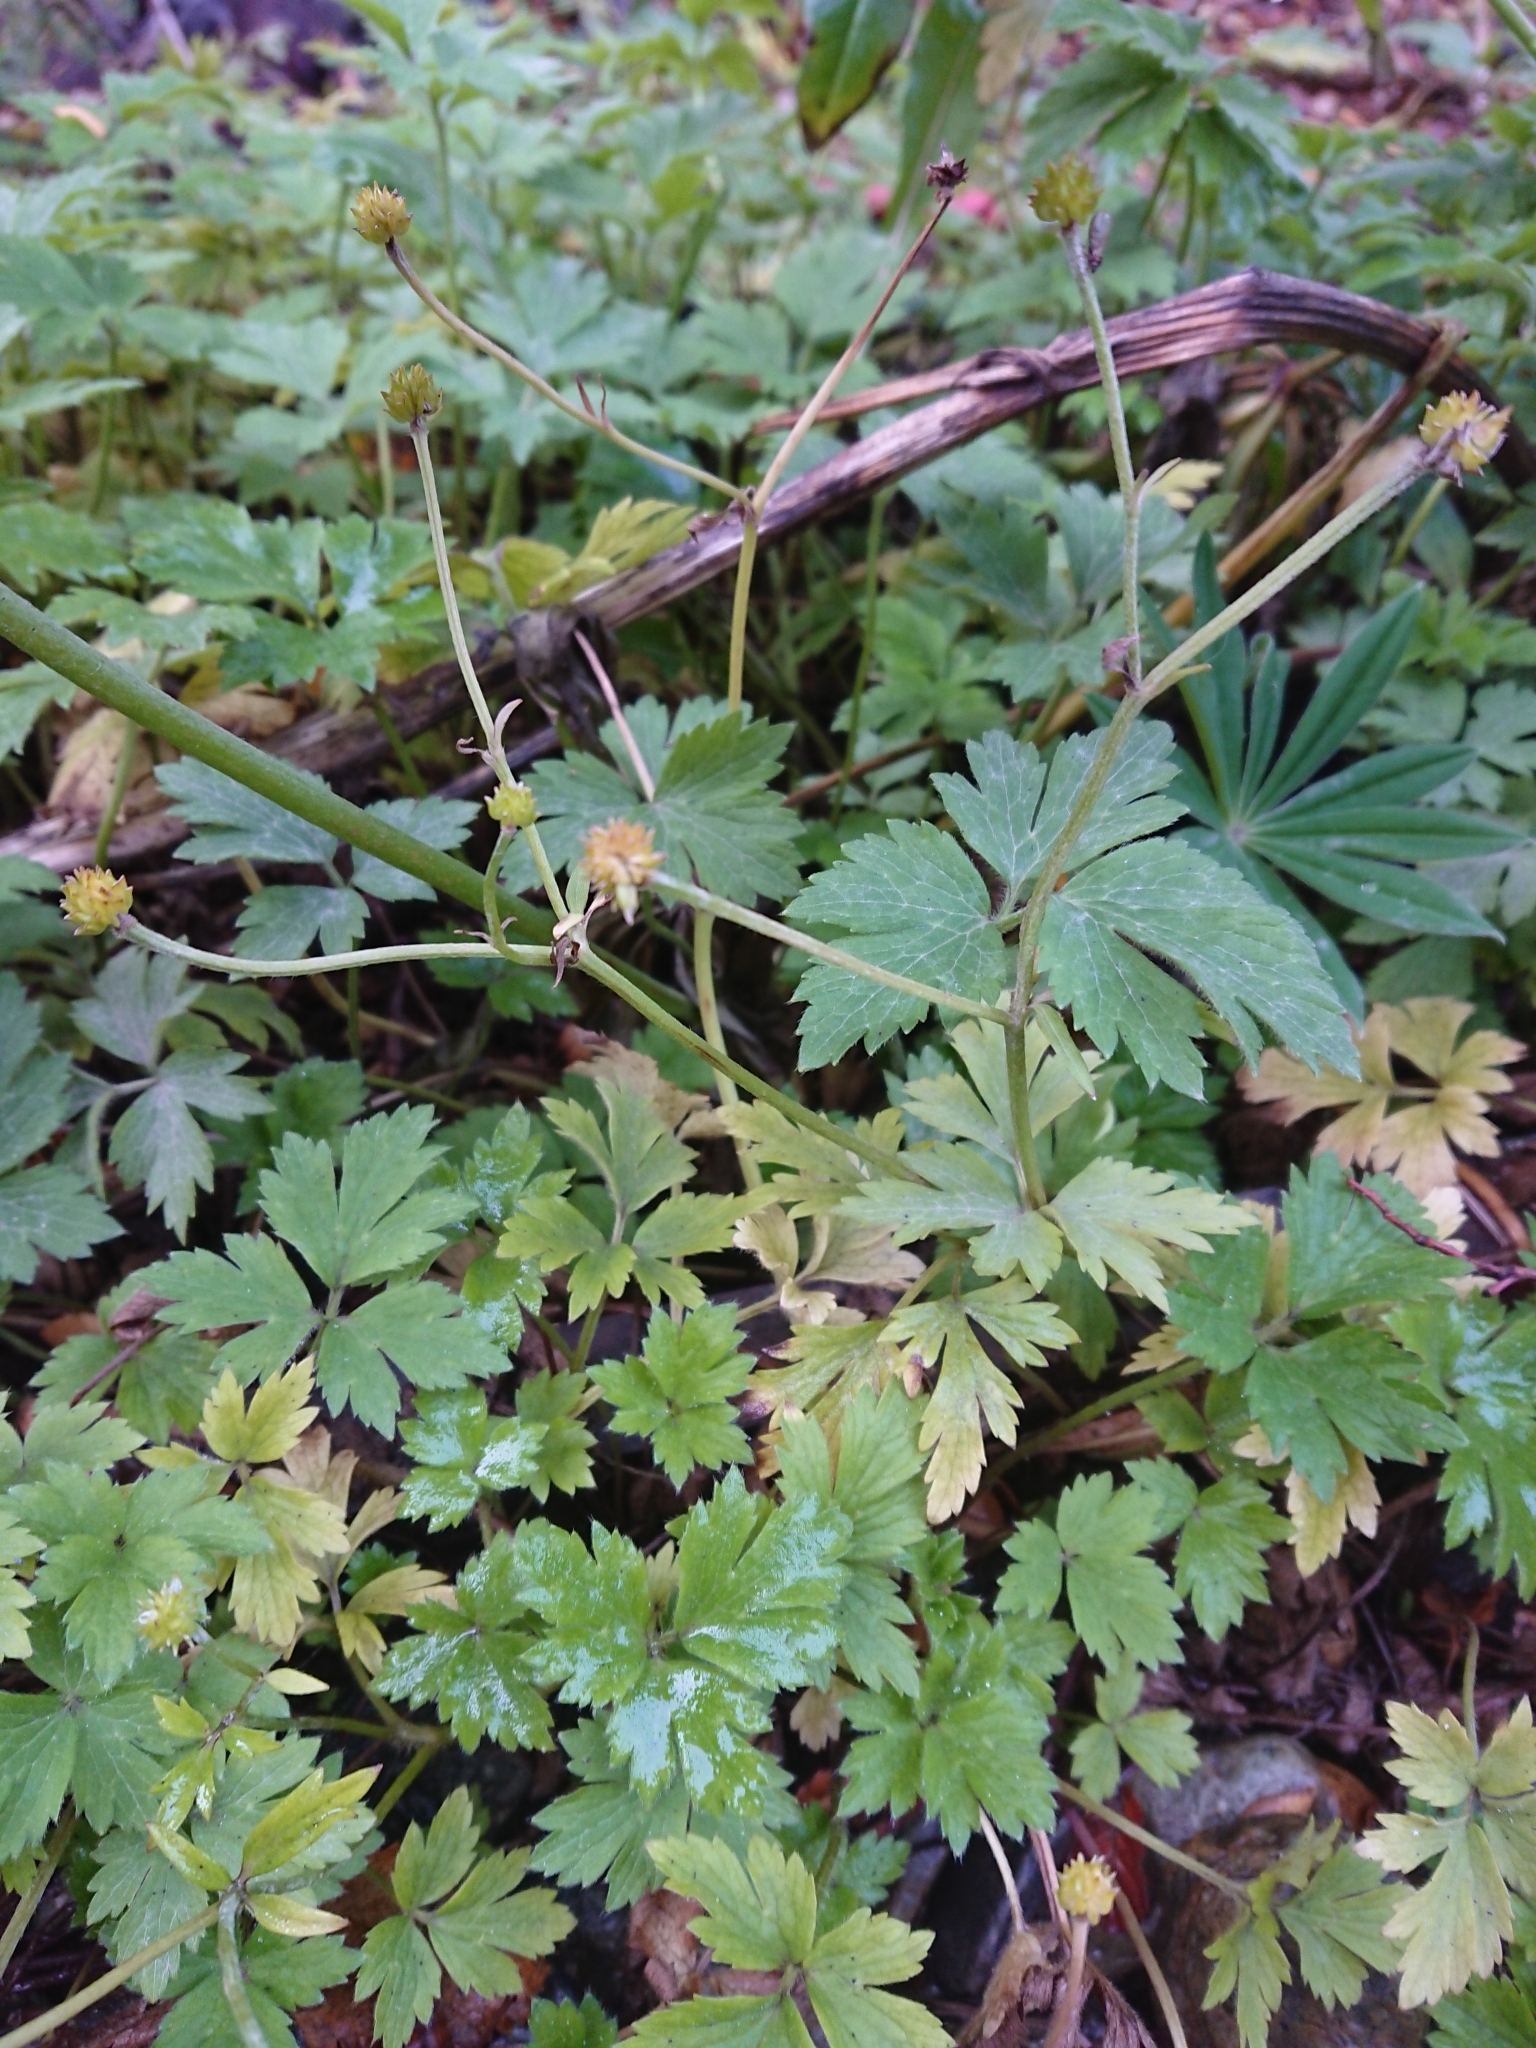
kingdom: Plantae
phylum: Tracheophyta
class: Magnoliopsida
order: Ranunculales
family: Ranunculaceae
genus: Ranunculus
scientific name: Ranunculus repens
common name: Creeping buttercup
